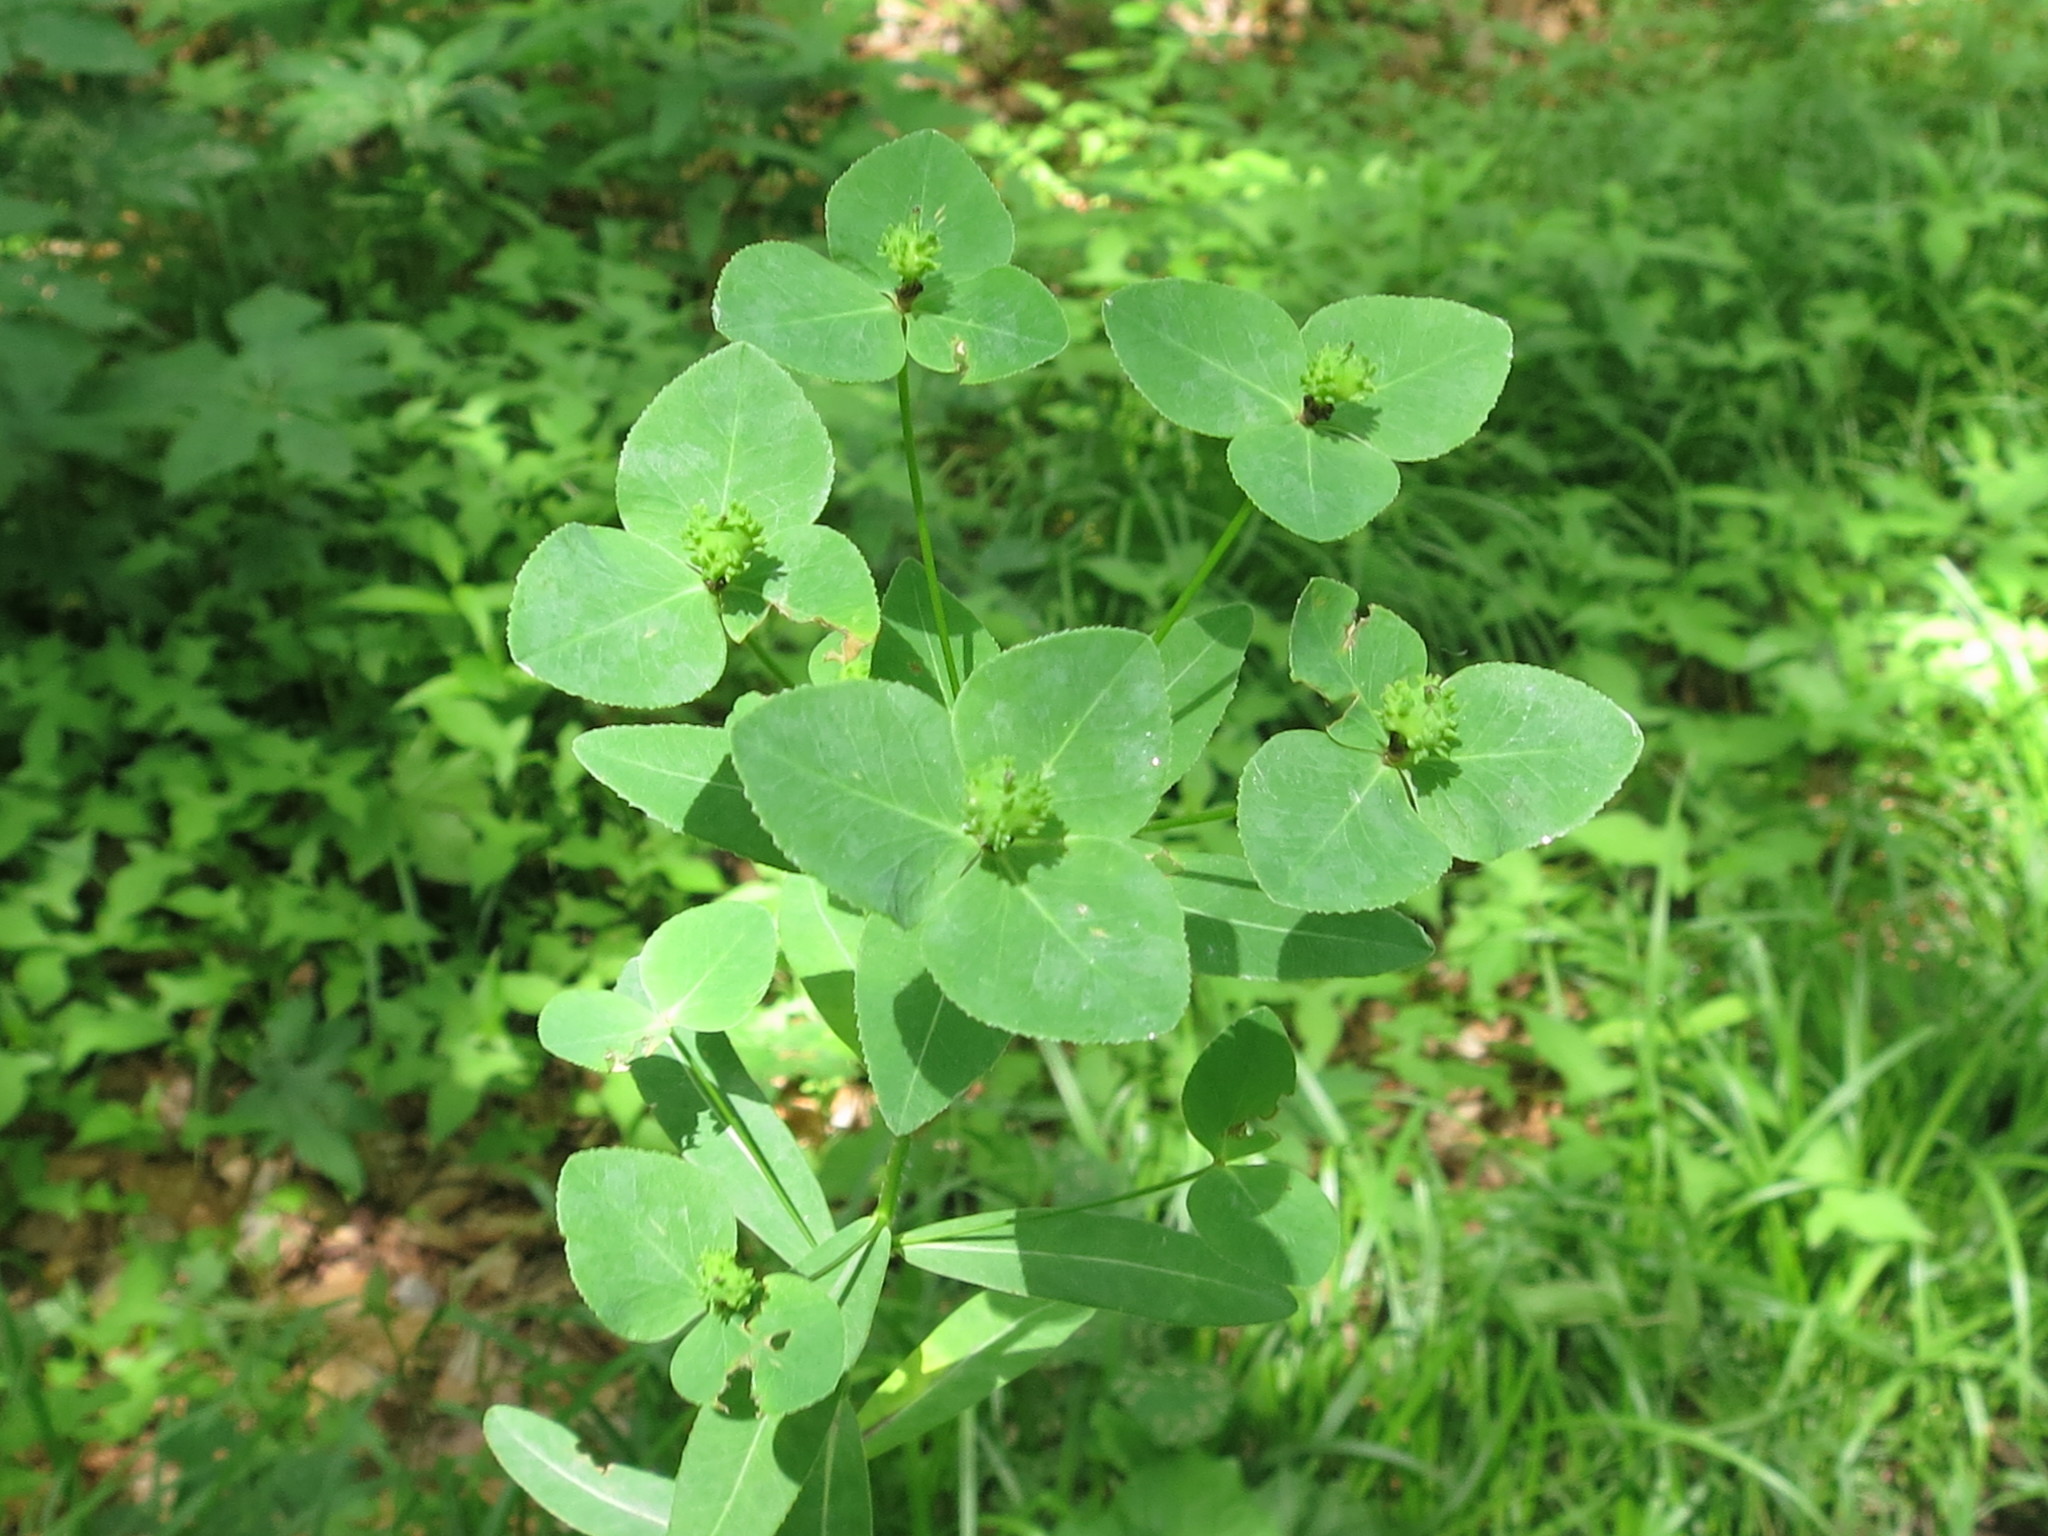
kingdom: Plantae
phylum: Tracheophyta
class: Magnoliopsida
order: Malpighiales
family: Euphorbiaceae
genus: Euphorbia
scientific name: Euphorbia lucorum
